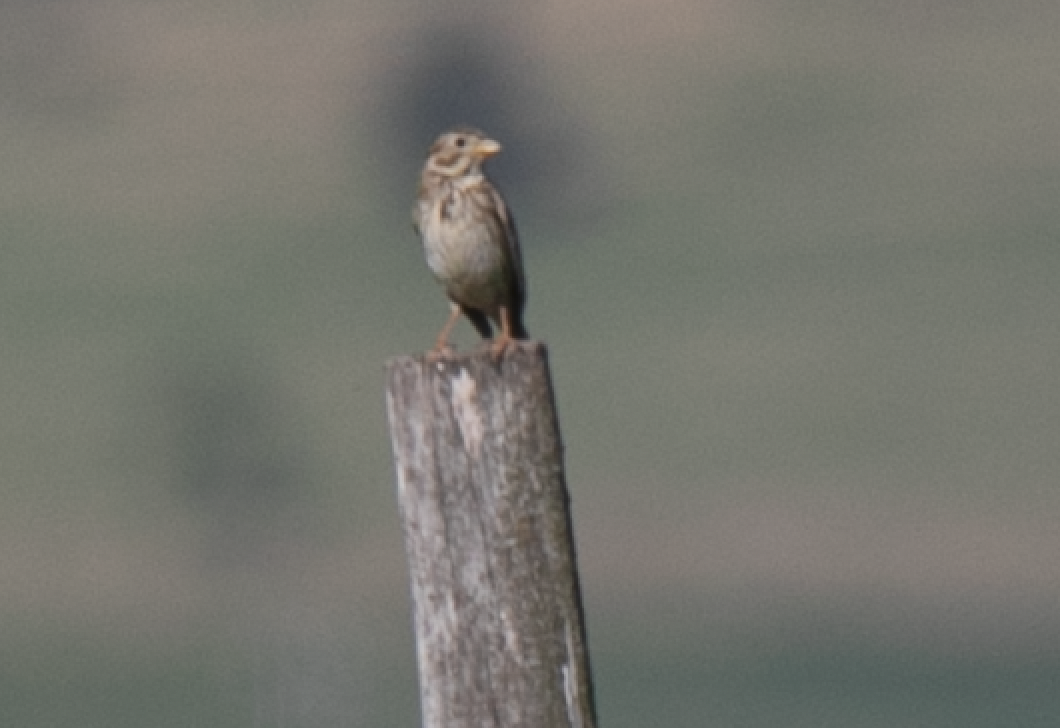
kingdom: Animalia
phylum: Chordata
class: Aves
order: Passeriformes
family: Emberizidae
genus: Emberiza
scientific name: Emberiza calandra
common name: Corn bunting
